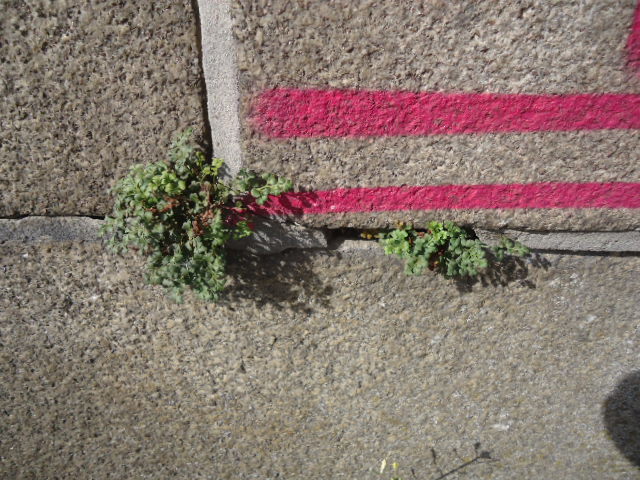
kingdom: Plantae
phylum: Tracheophyta
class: Polypodiopsida
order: Polypodiales
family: Aspleniaceae
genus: Asplenium
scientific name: Asplenium ruta-muraria
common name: Wall-rue
